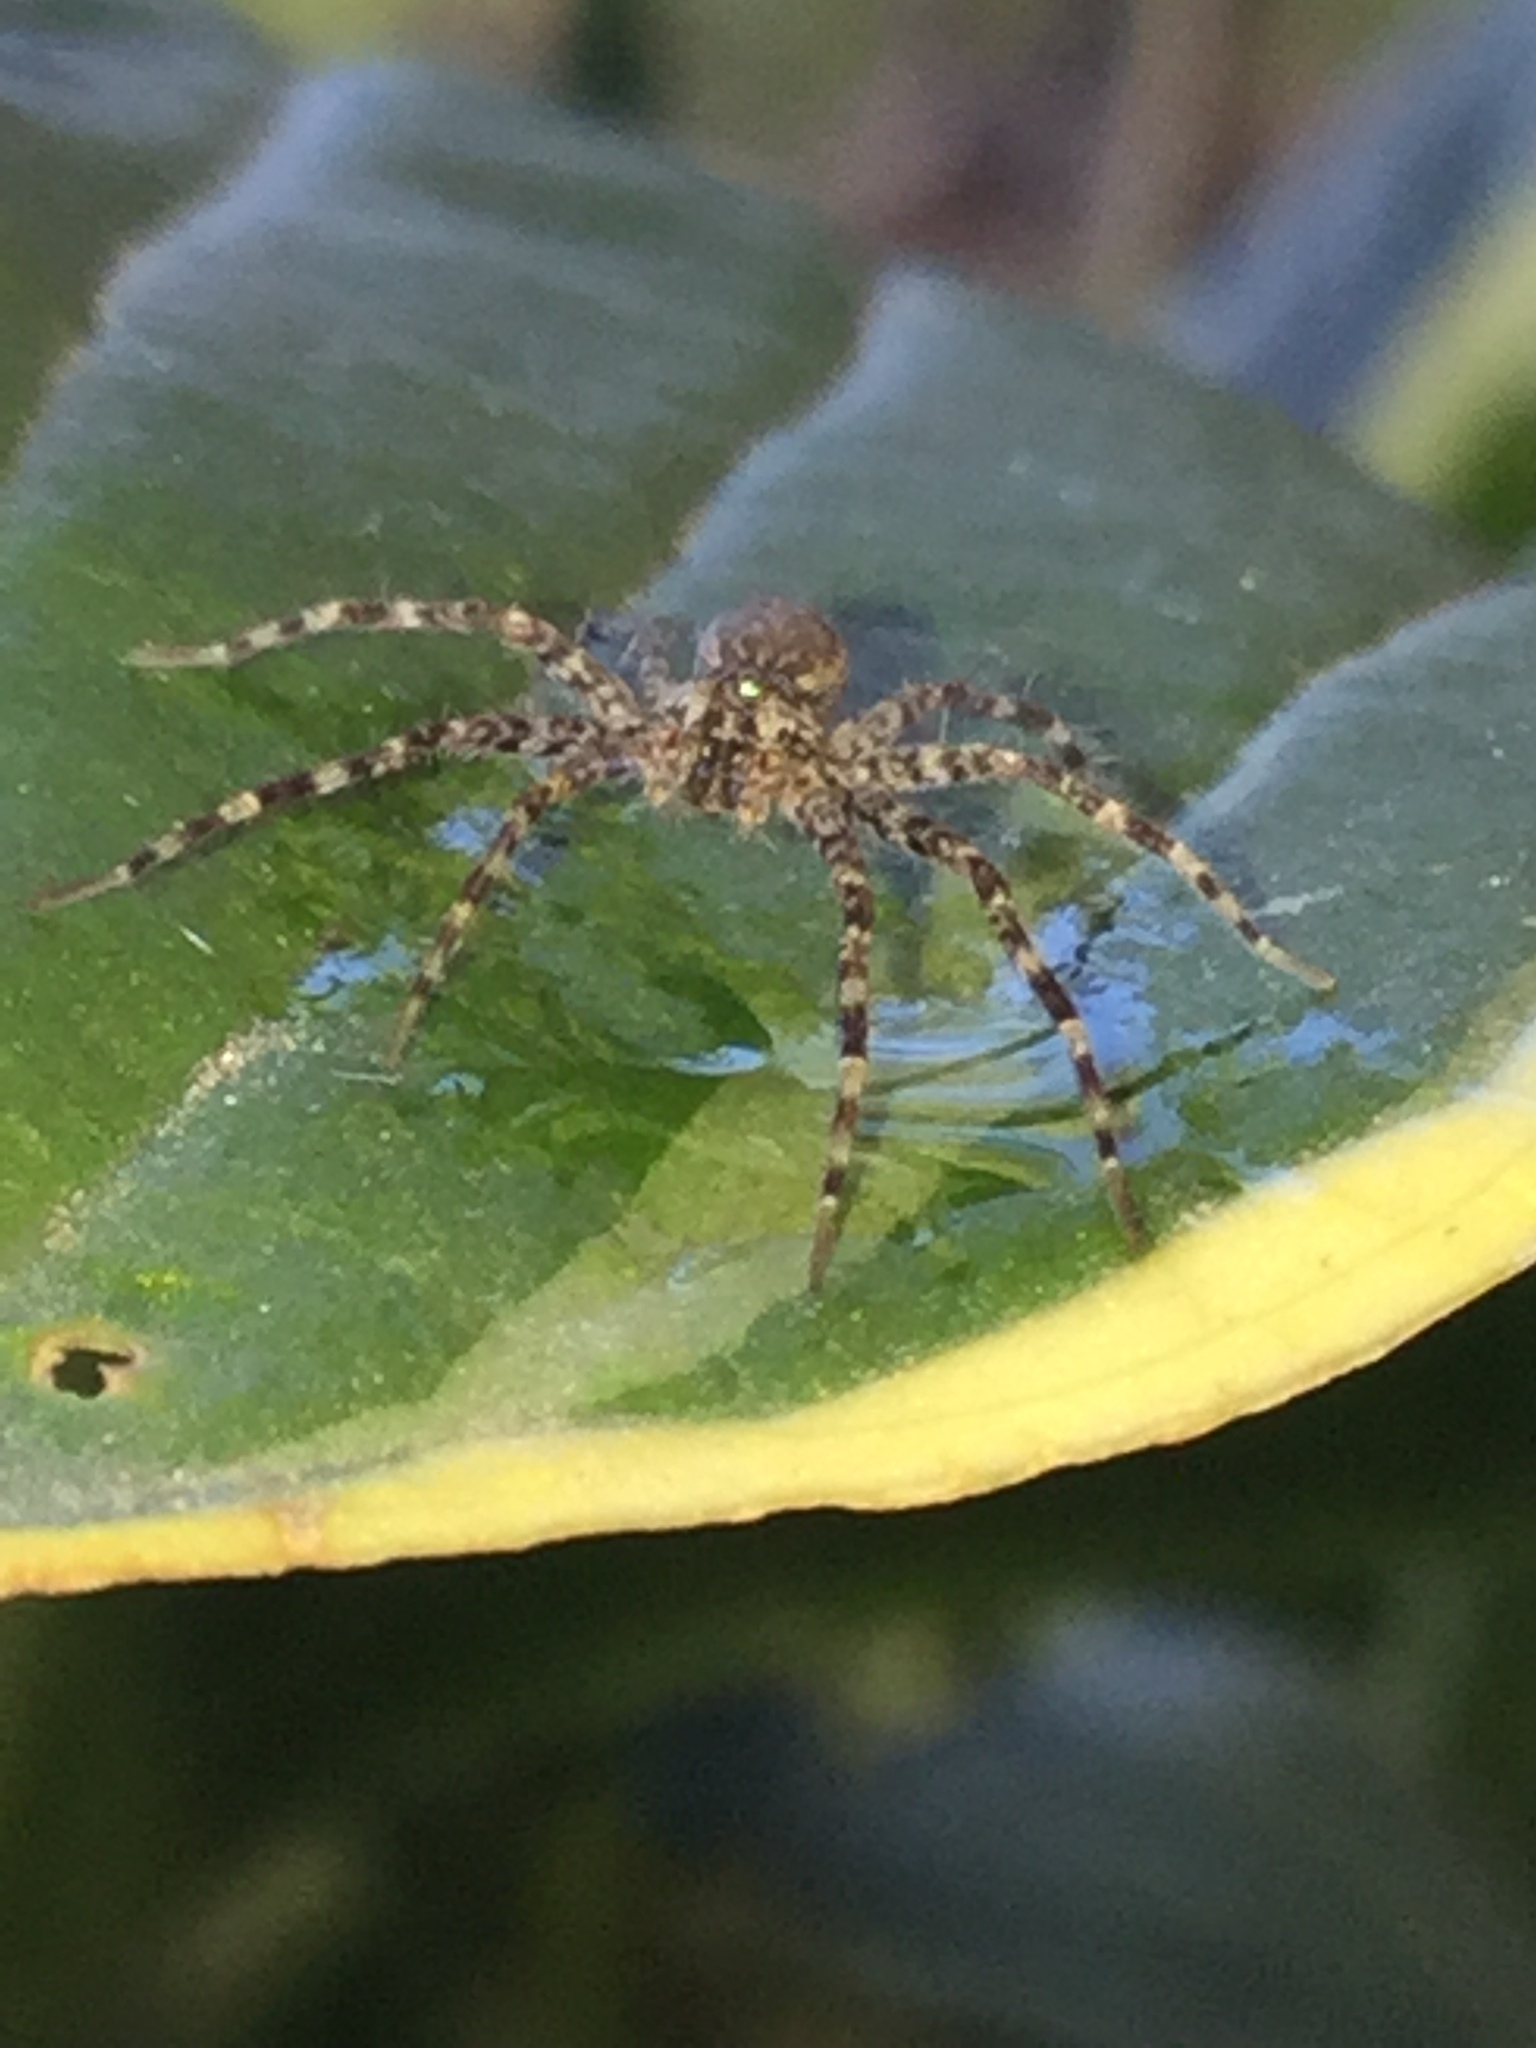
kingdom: Animalia
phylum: Arthropoda
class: Arachnida
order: Araneae
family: Pisauridae
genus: Dolomedes
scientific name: Dolomedes tenebrosus
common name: Dark fishing spider
